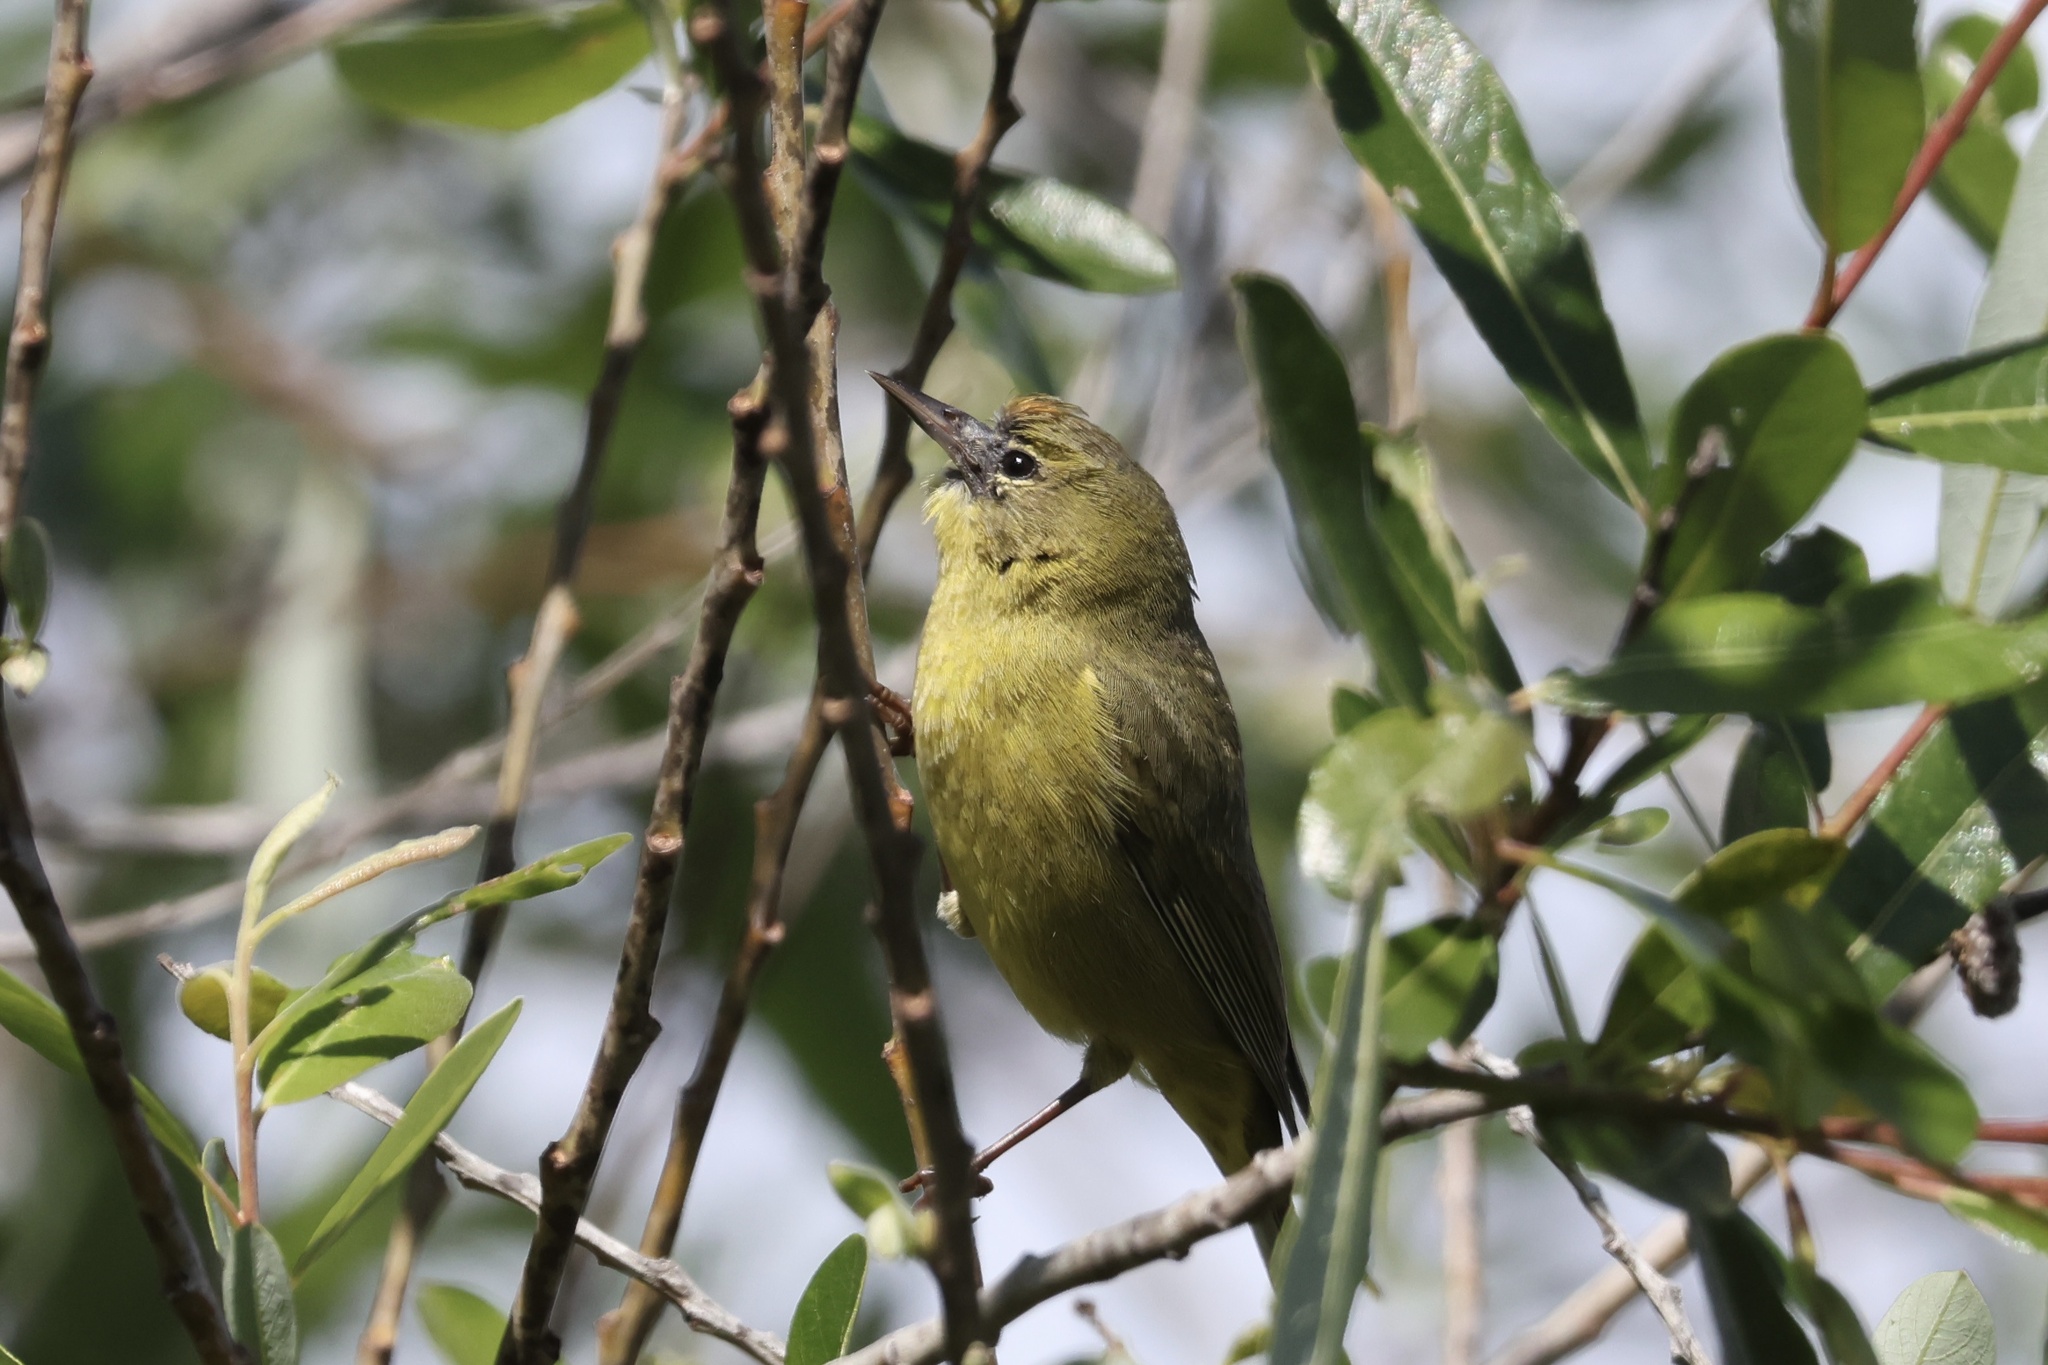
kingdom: Animalia
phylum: Chordata
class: Aves
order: Passeriformes
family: Parulidae
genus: Leiothlypis
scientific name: Leiothlypis celata
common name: Orange-crowned warbler
